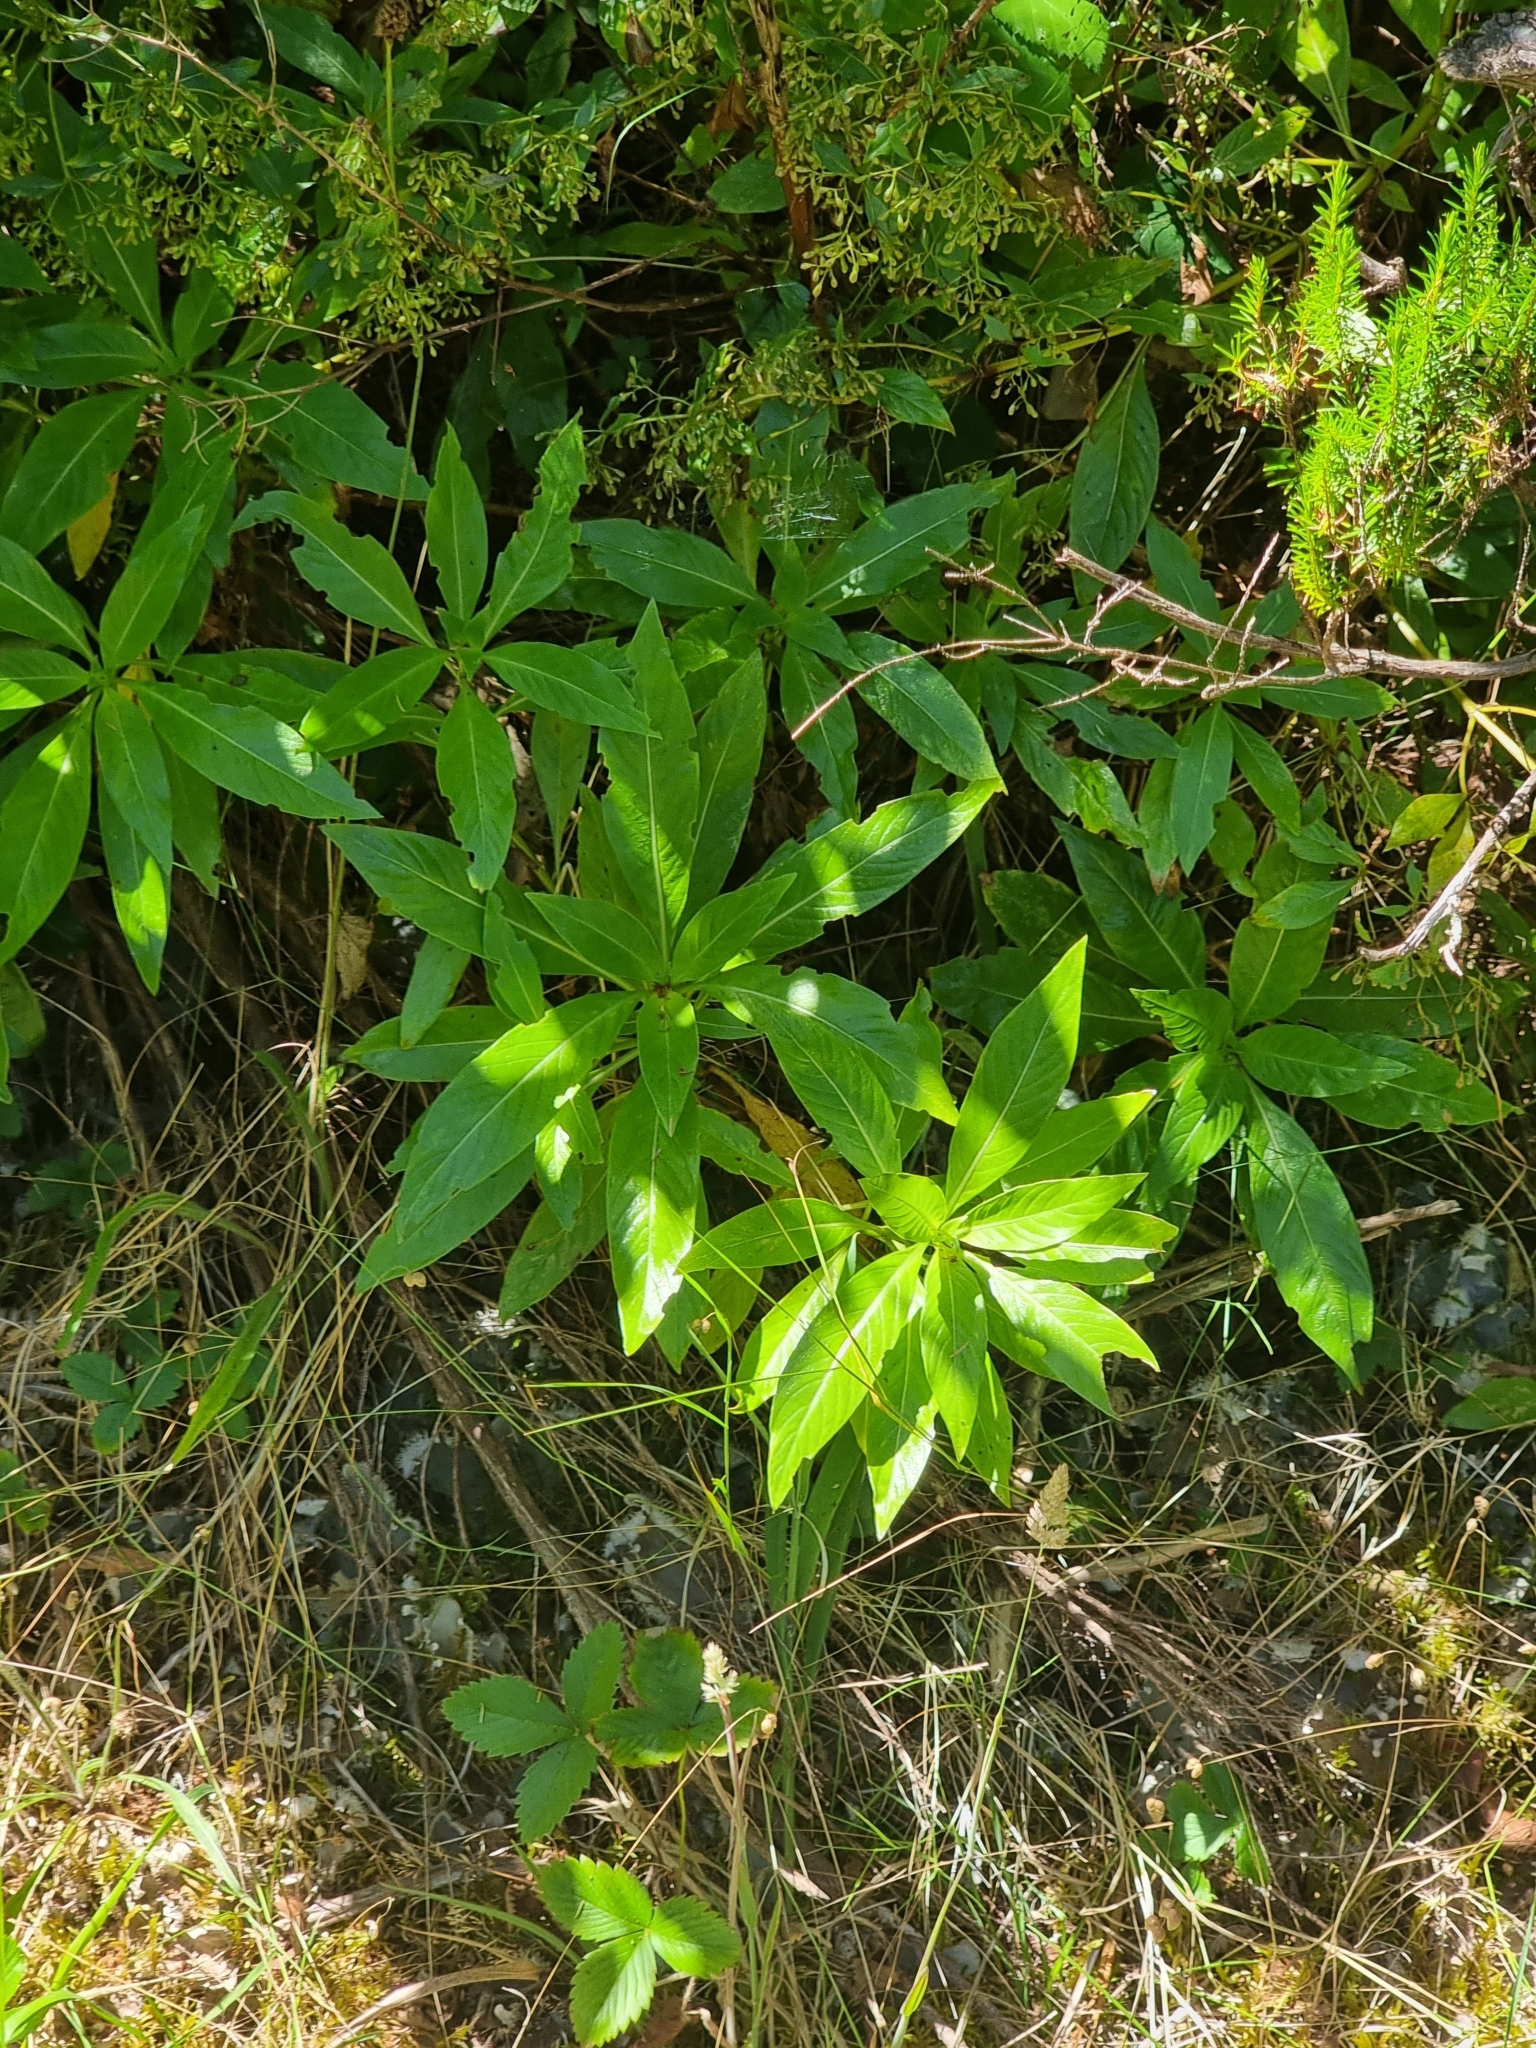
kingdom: Plantae
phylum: Tracheophyta
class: Magnoliopsida
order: Gentianales
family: Rubiaceae
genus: Phyllis
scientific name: Phyllis nobla
